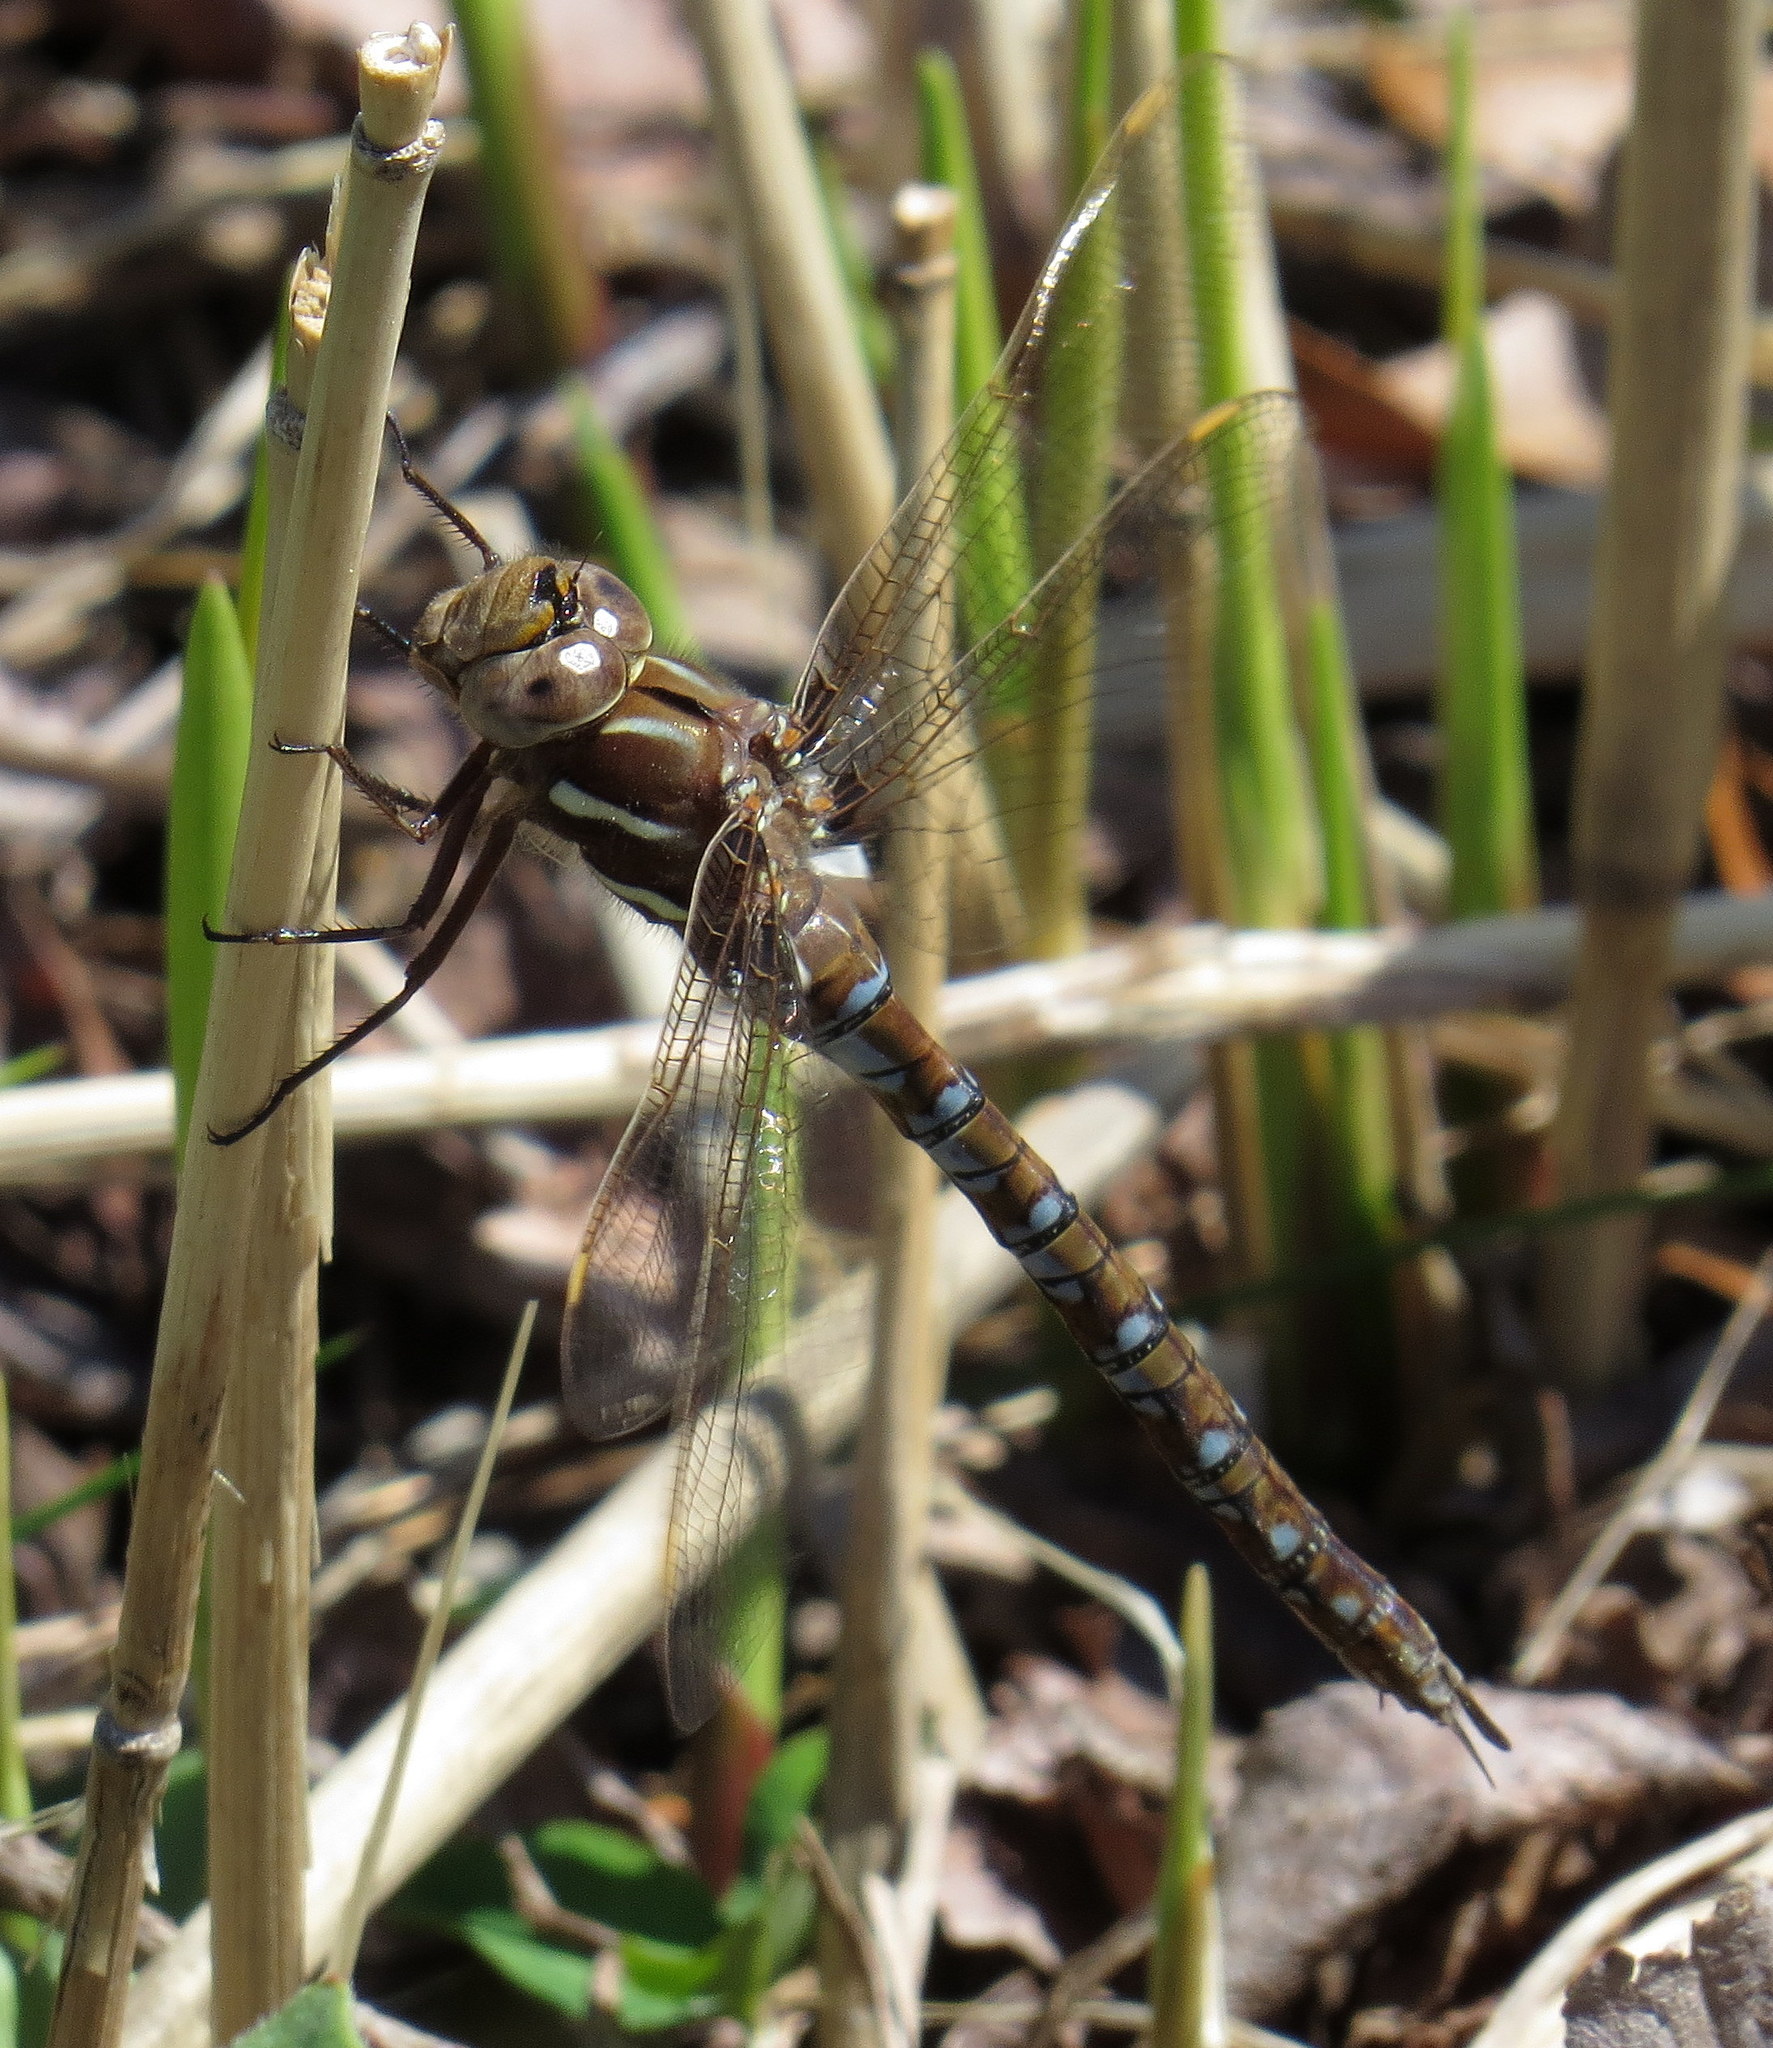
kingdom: Animalia
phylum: Arthropoda
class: Insecta
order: Odonata
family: Aeshnidae
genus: Basiaeschna
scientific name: Basiaeschna janata
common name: Springtime darner
